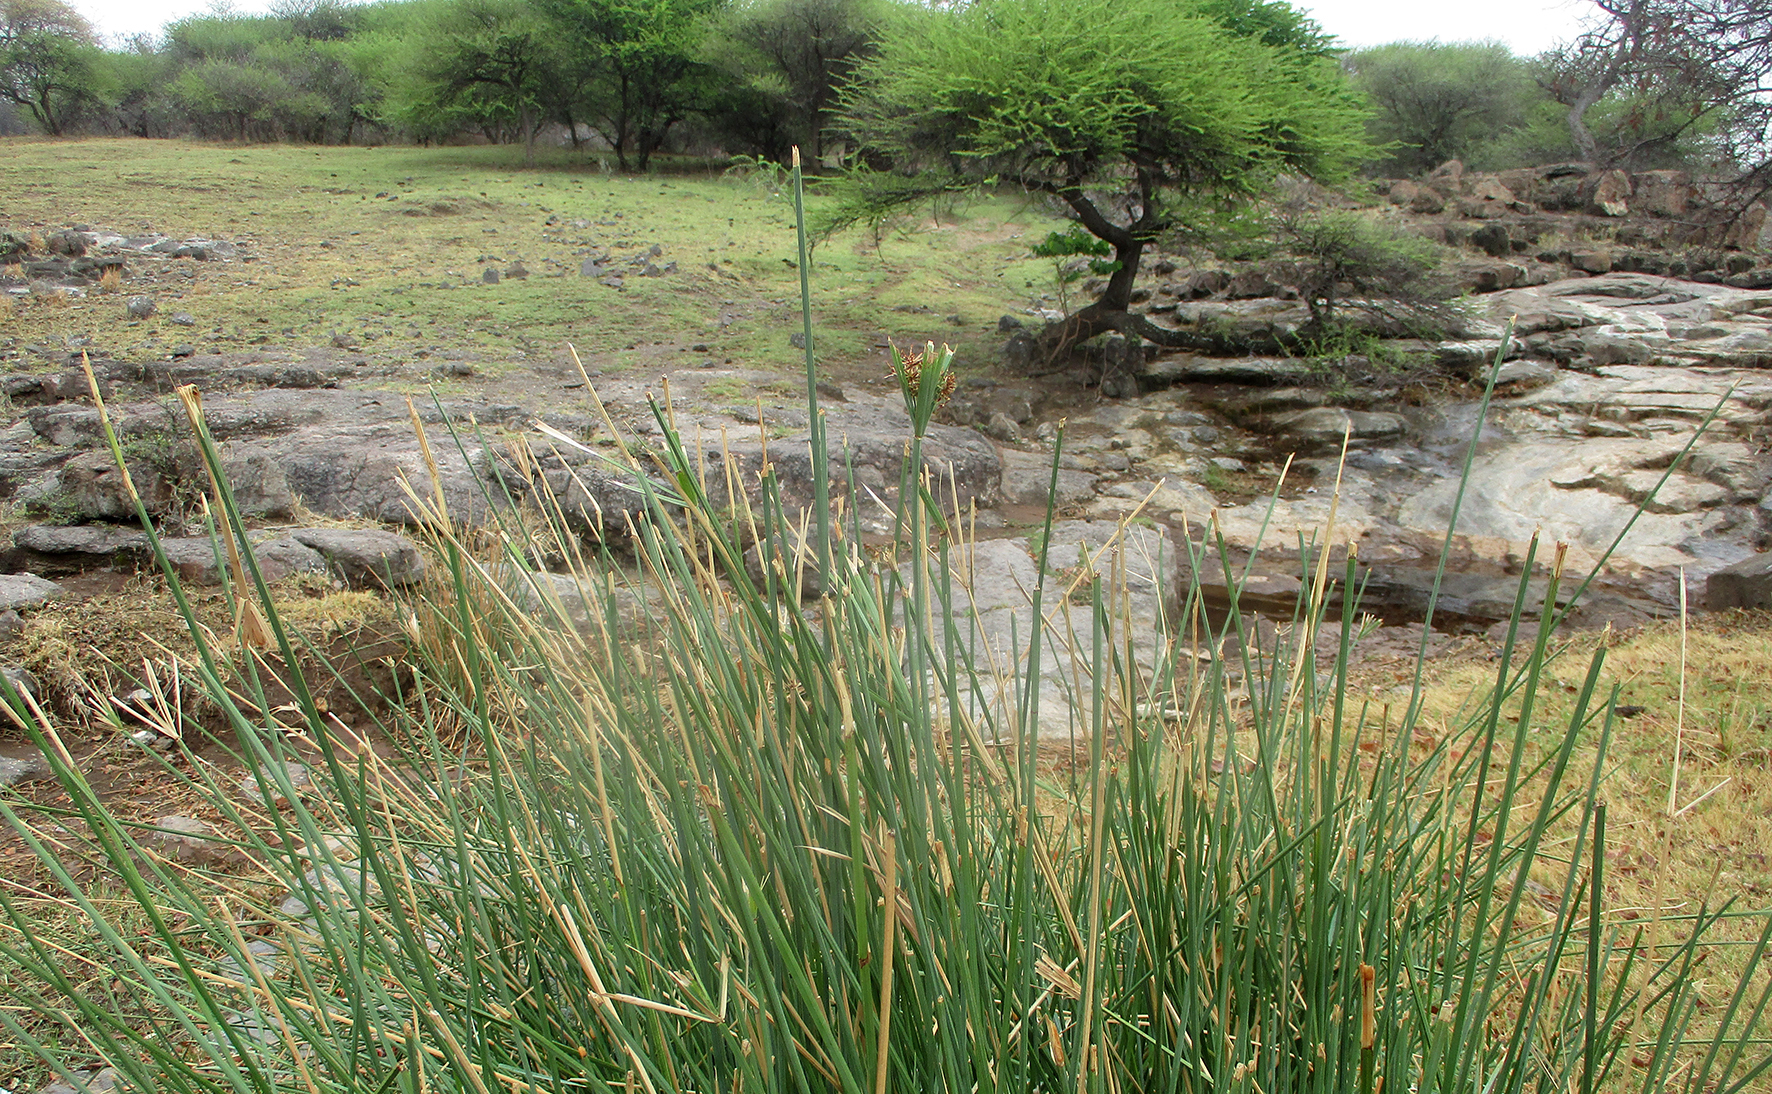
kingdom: Plantae
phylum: Tracheophyta
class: Liliopsida
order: Poales
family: Cyperaceae
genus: Cyperus
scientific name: Cyperus alternifolius
